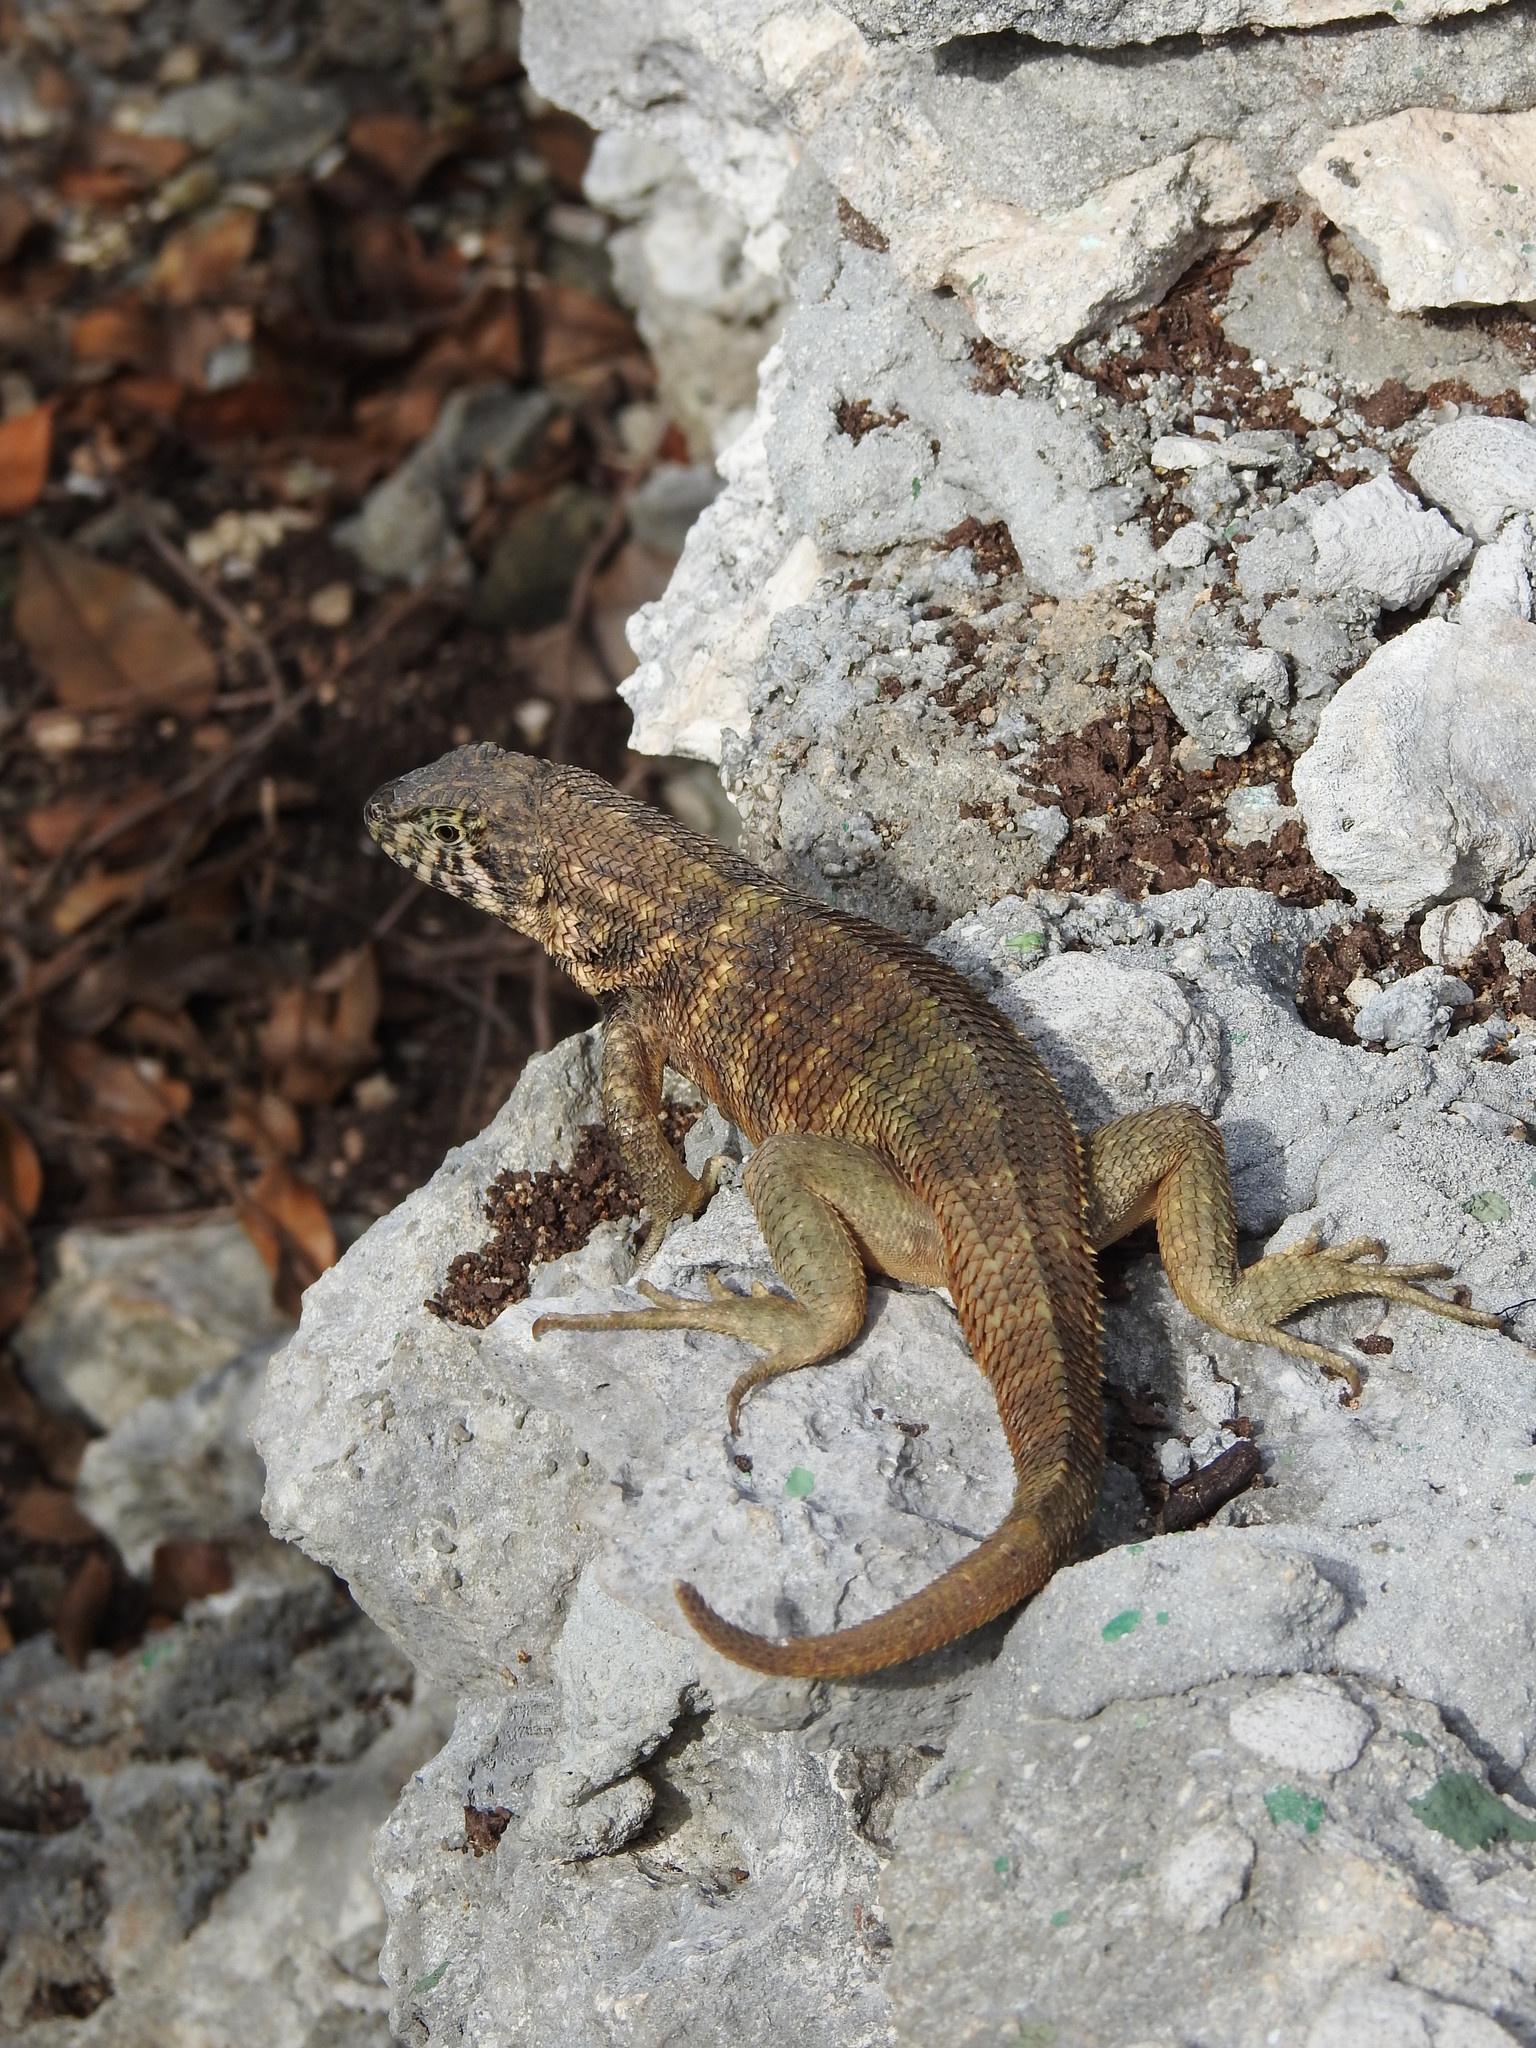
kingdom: Animalia
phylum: Chordata
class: Squamata
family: Leiocephalidae
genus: Leiocephalus
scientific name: Leiocephalus carinatus
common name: Northern curly-tailed lizard
